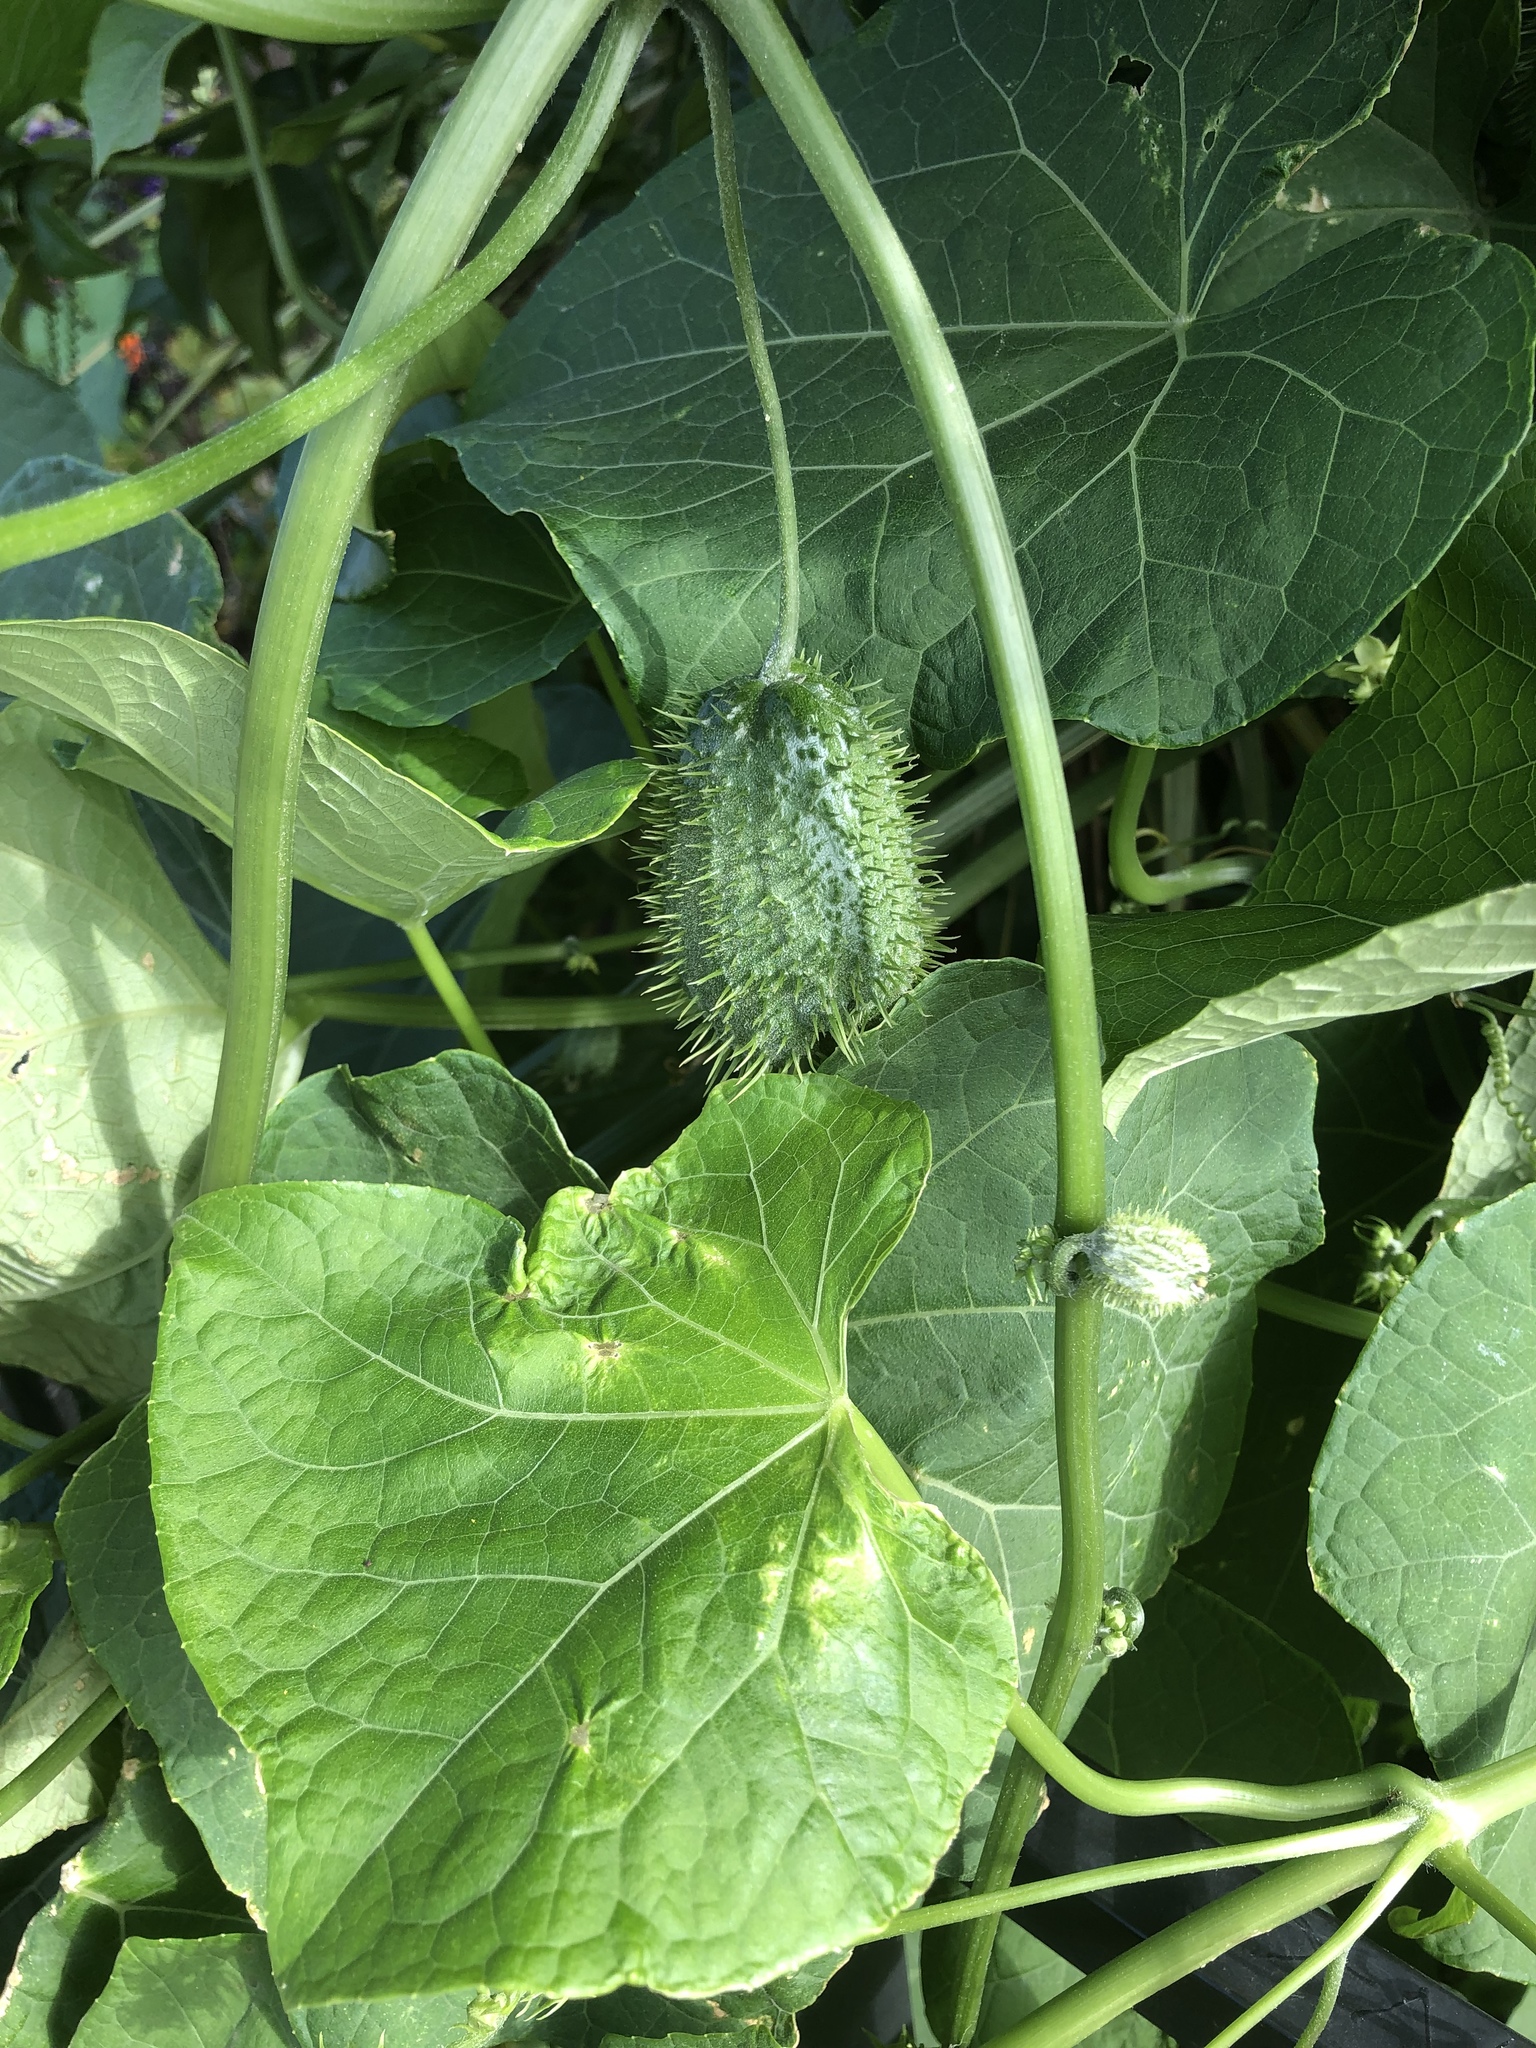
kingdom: Plantae
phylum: Tracheophyta
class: Magnoliopsida
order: Cucurbitales
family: Cucurbitaceae
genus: Marah
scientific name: Marah fabacea
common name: California manroot
